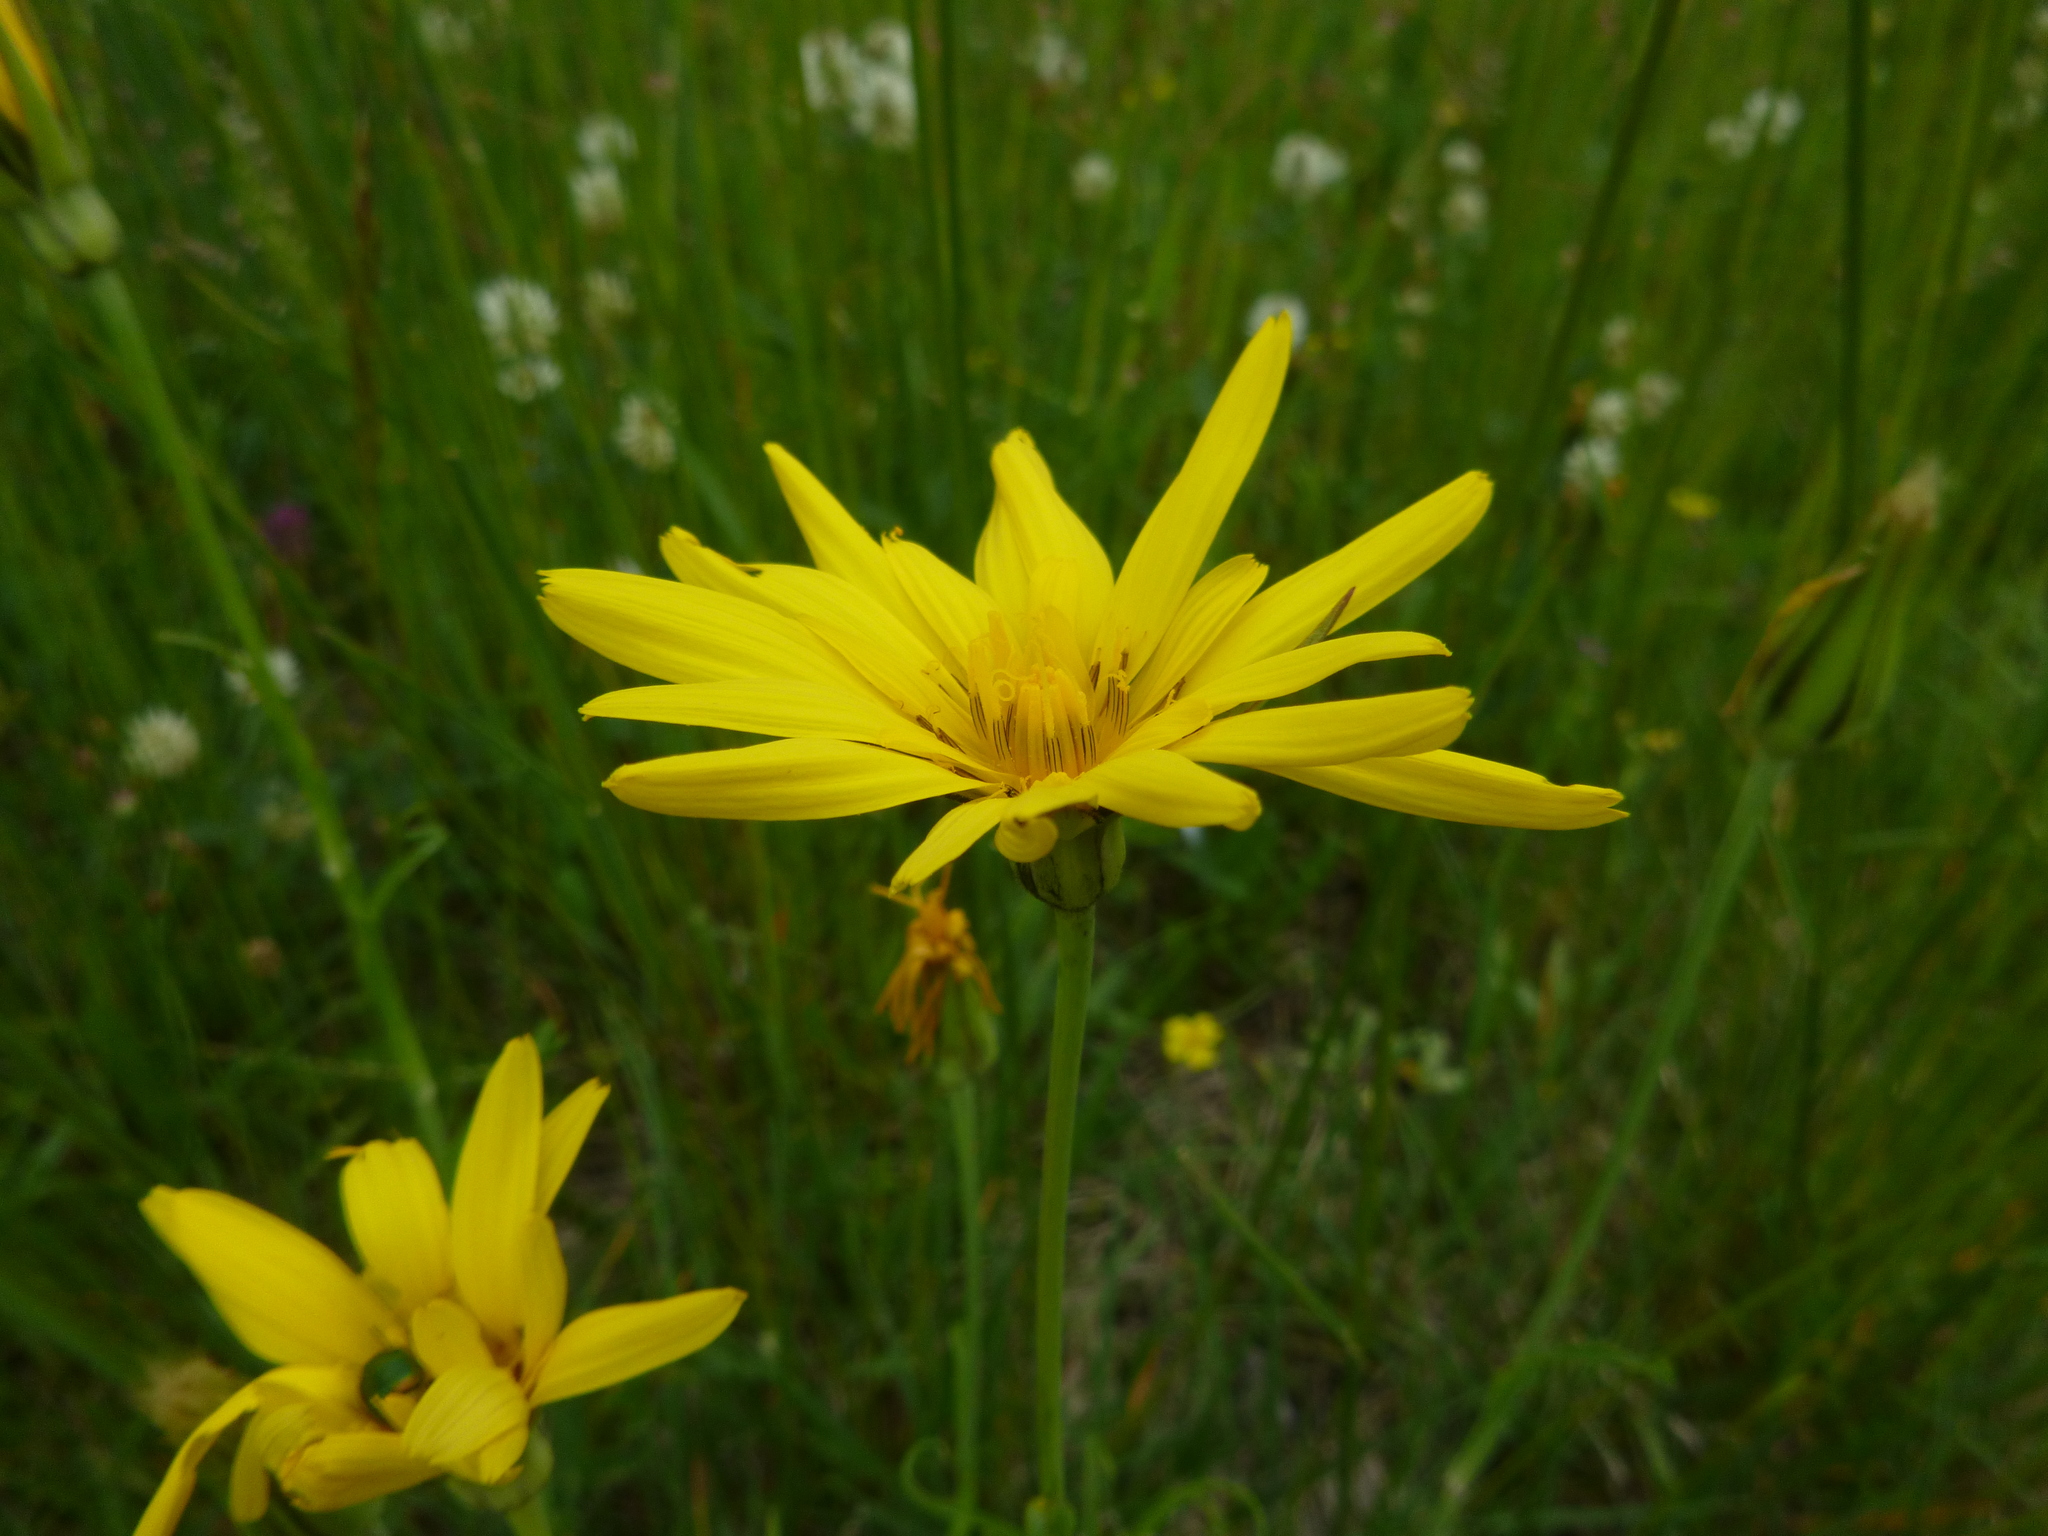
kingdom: Plantae
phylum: Tracheophyta
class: Magnoliopsida
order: Asterales
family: Asteraceae
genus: Tragopogon
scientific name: Tragopogon orientalis
